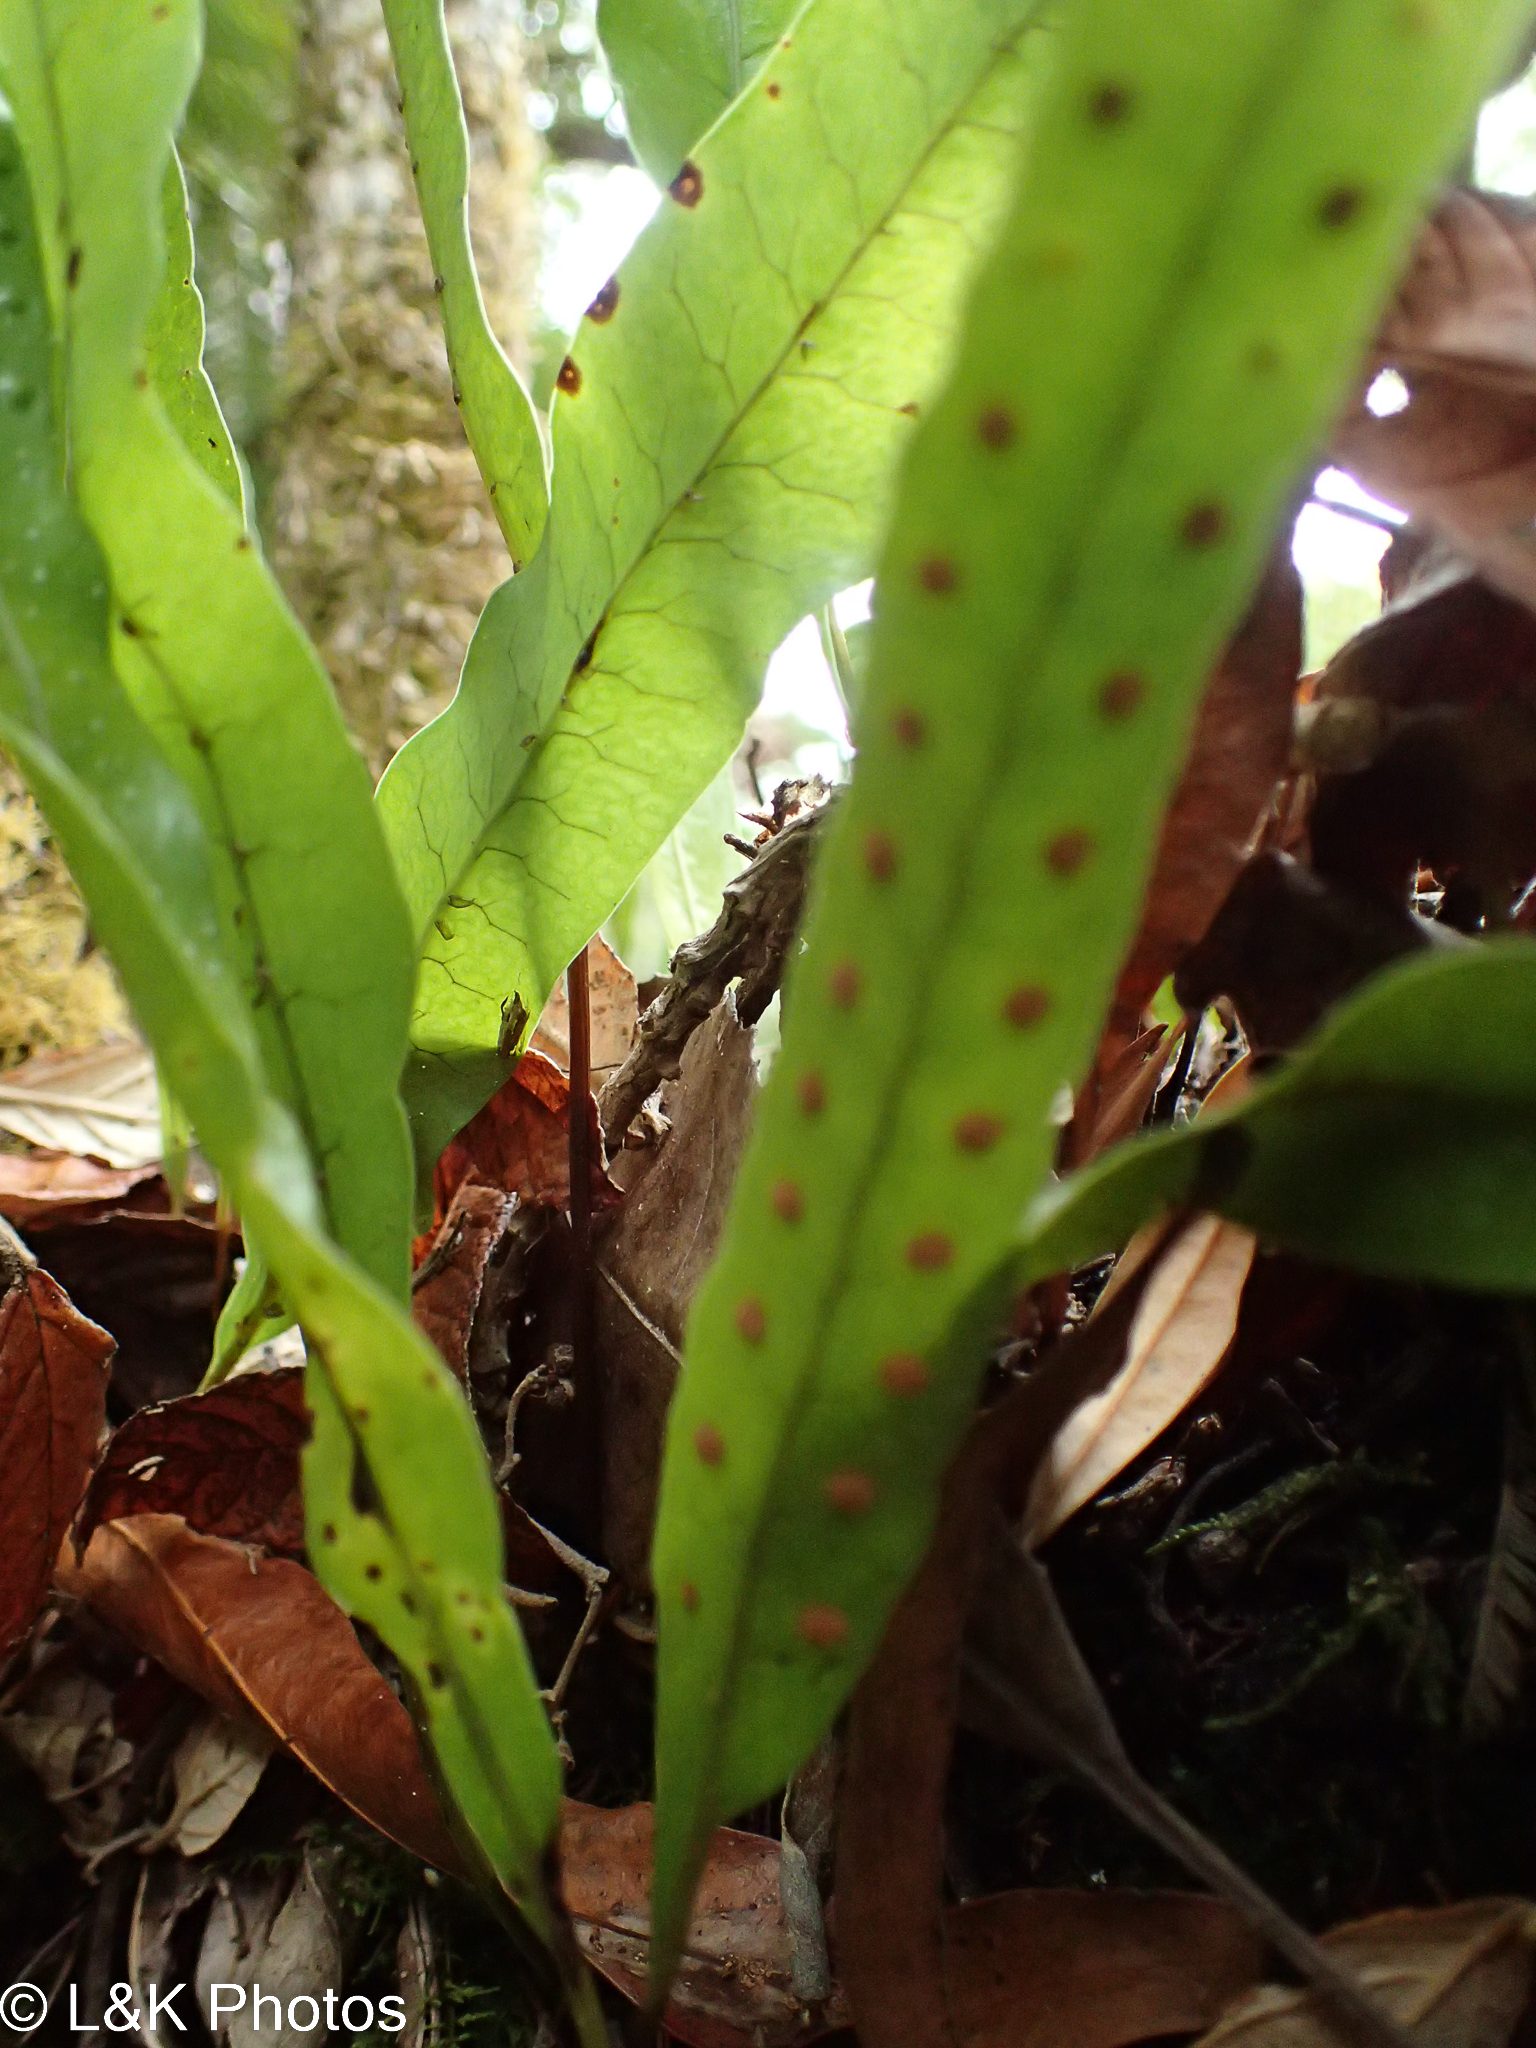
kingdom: Plantae
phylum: Tracheophyta
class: Polypodiopsida
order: Polypodiales
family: Polypodiaceae
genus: Lecanopteris
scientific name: Lecanopteris pustulata
